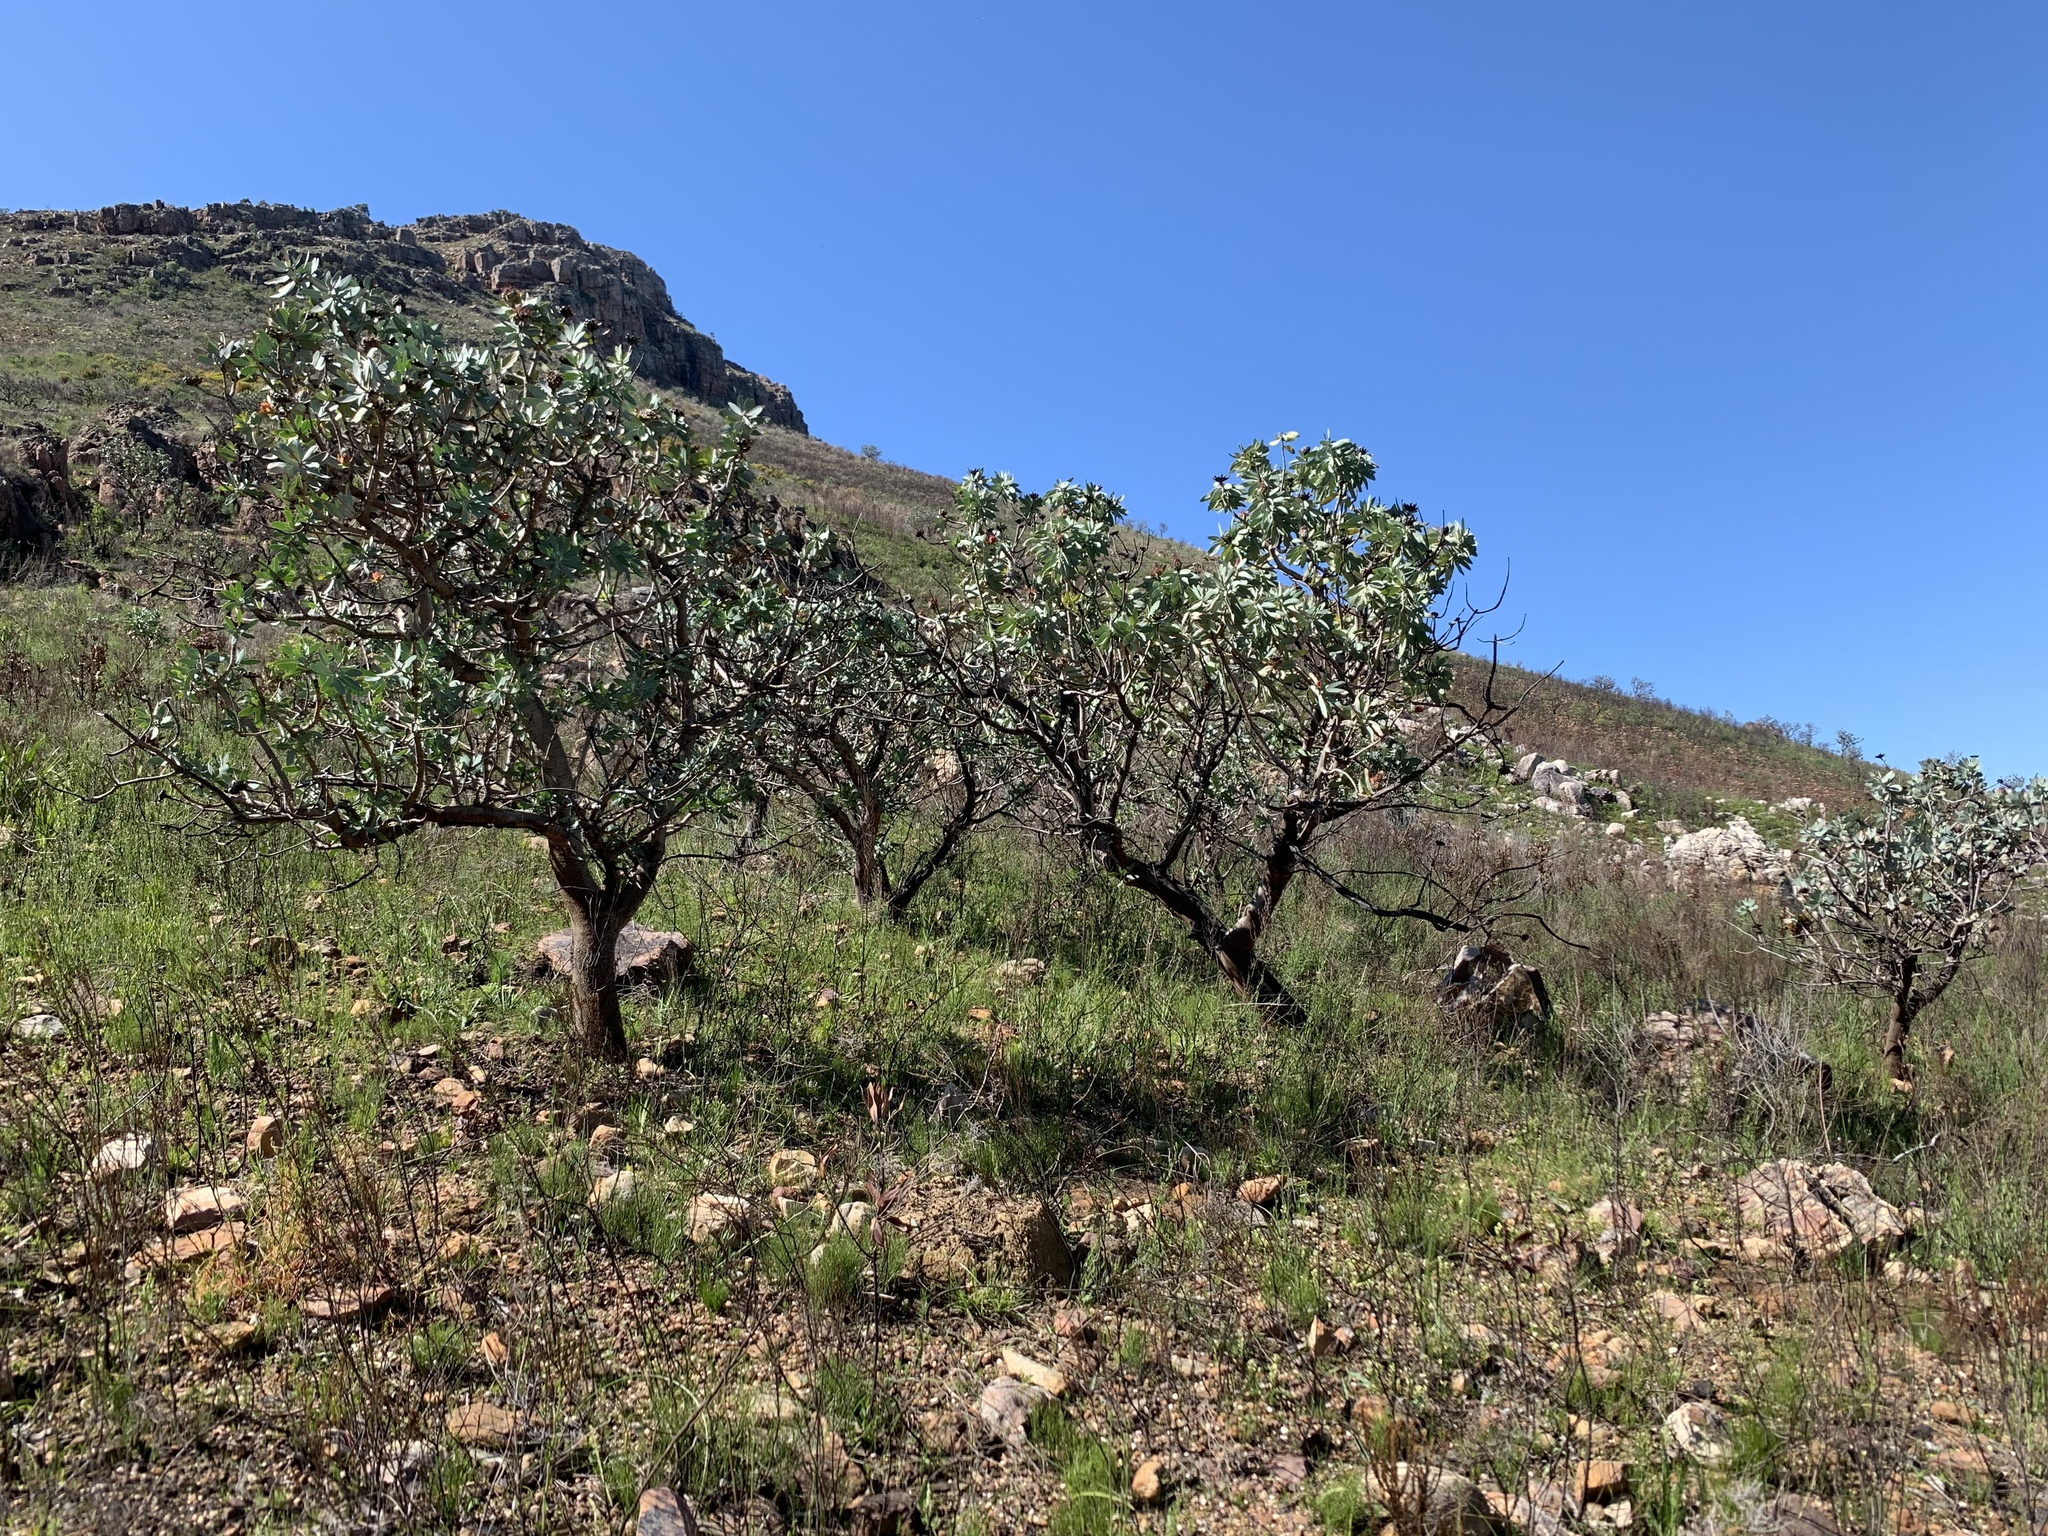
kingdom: Plantae
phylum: Tracheophyta
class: Magnoliopsida
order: Proteales
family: Proteaceae
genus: Protea
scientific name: Protea nitida
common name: Tree protea
